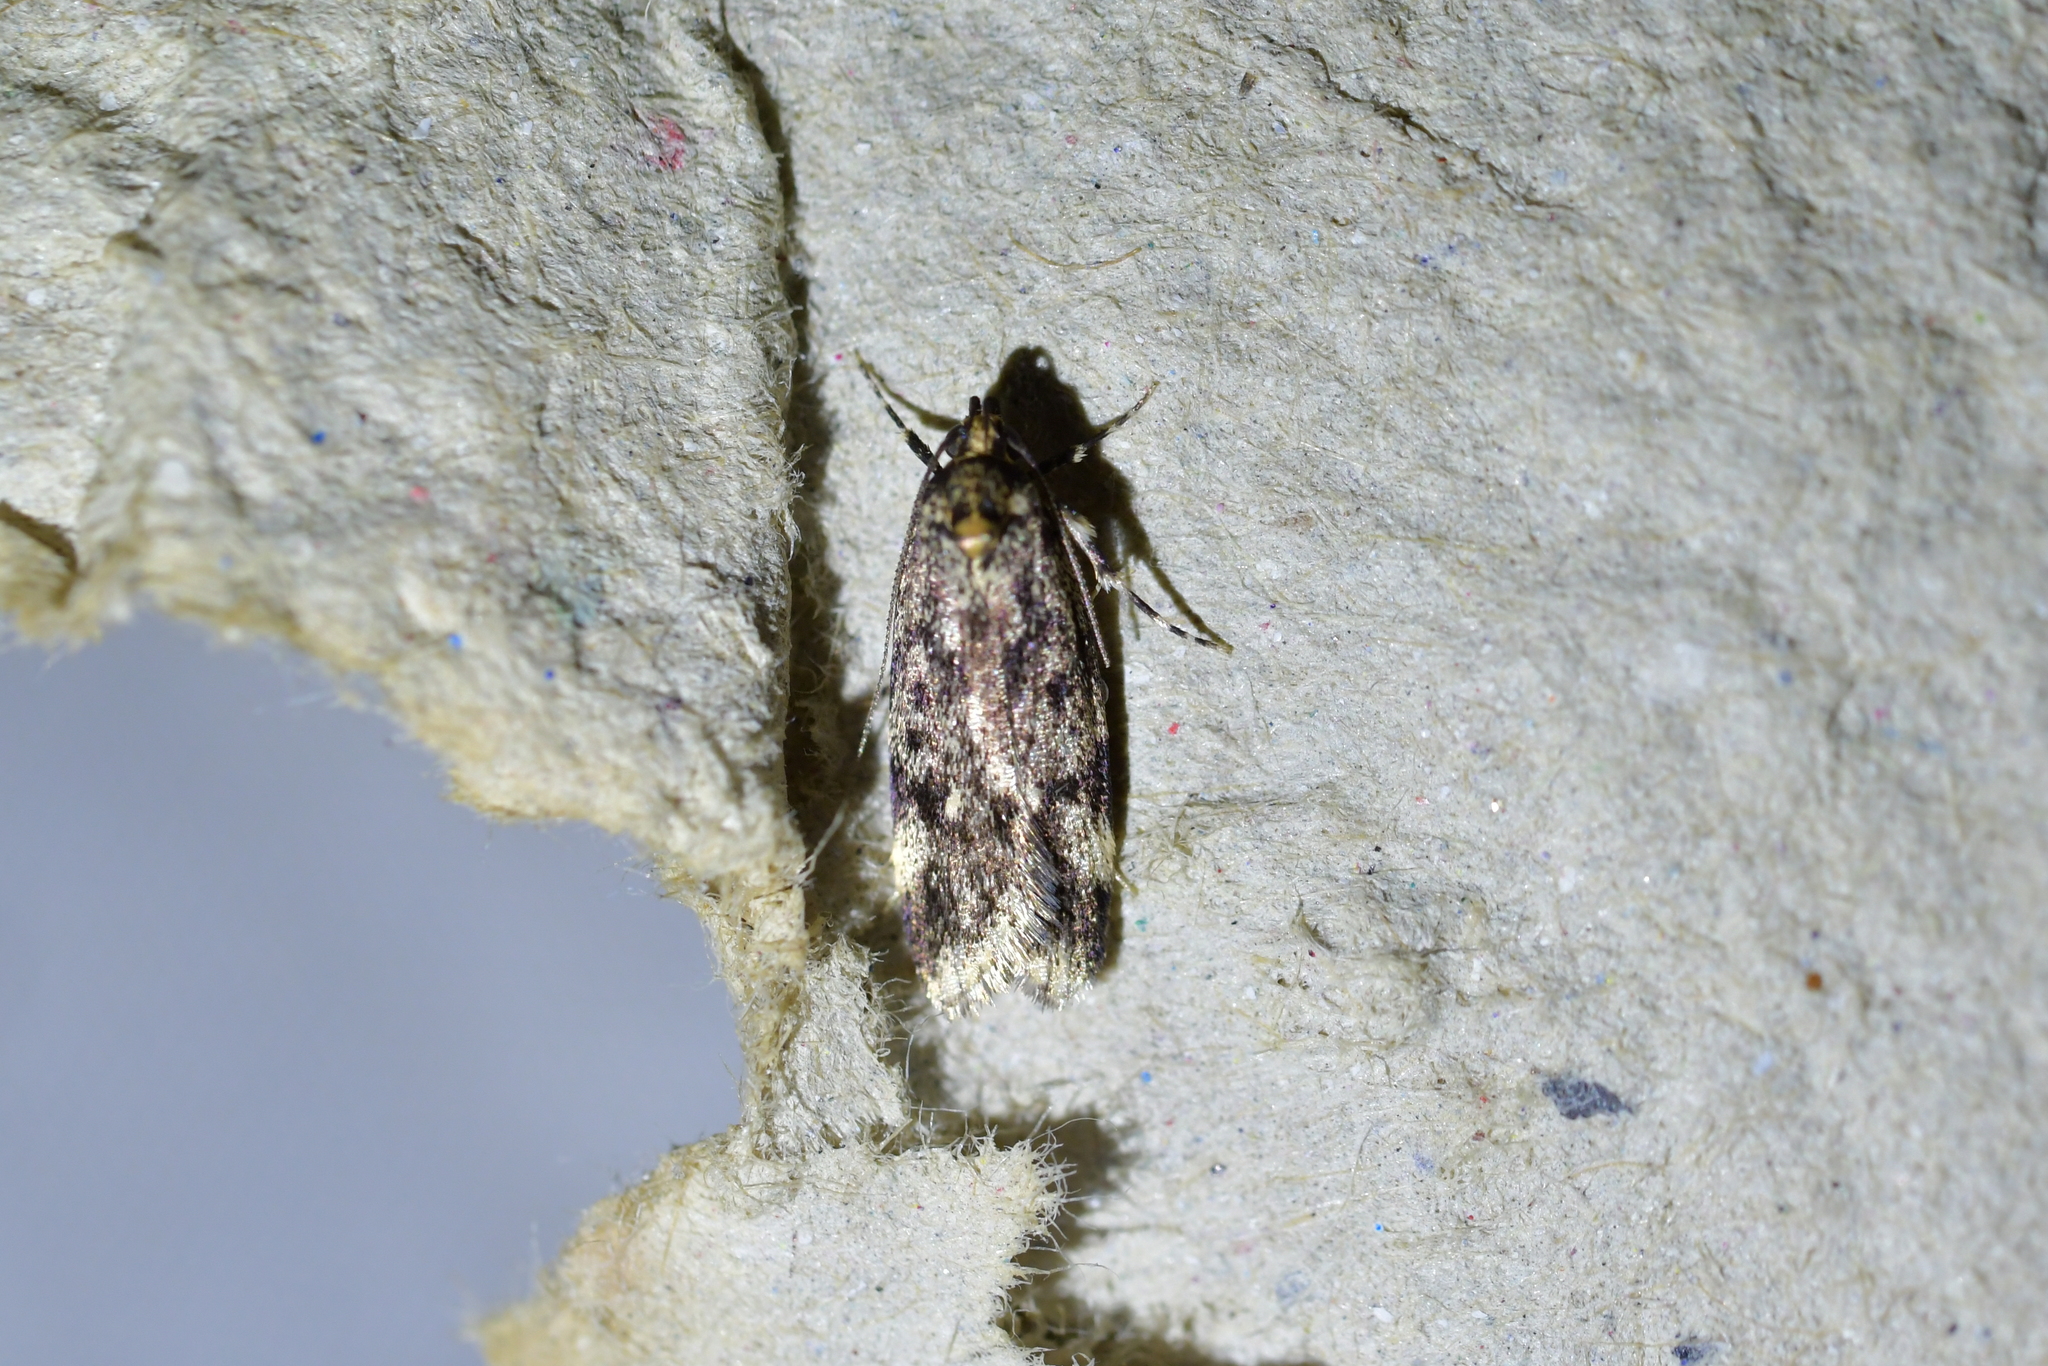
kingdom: Animalia
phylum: Arthropoda
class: Insecta
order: Lepidoptera
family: Oecophoridae
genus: Barea
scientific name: Barea codrella
